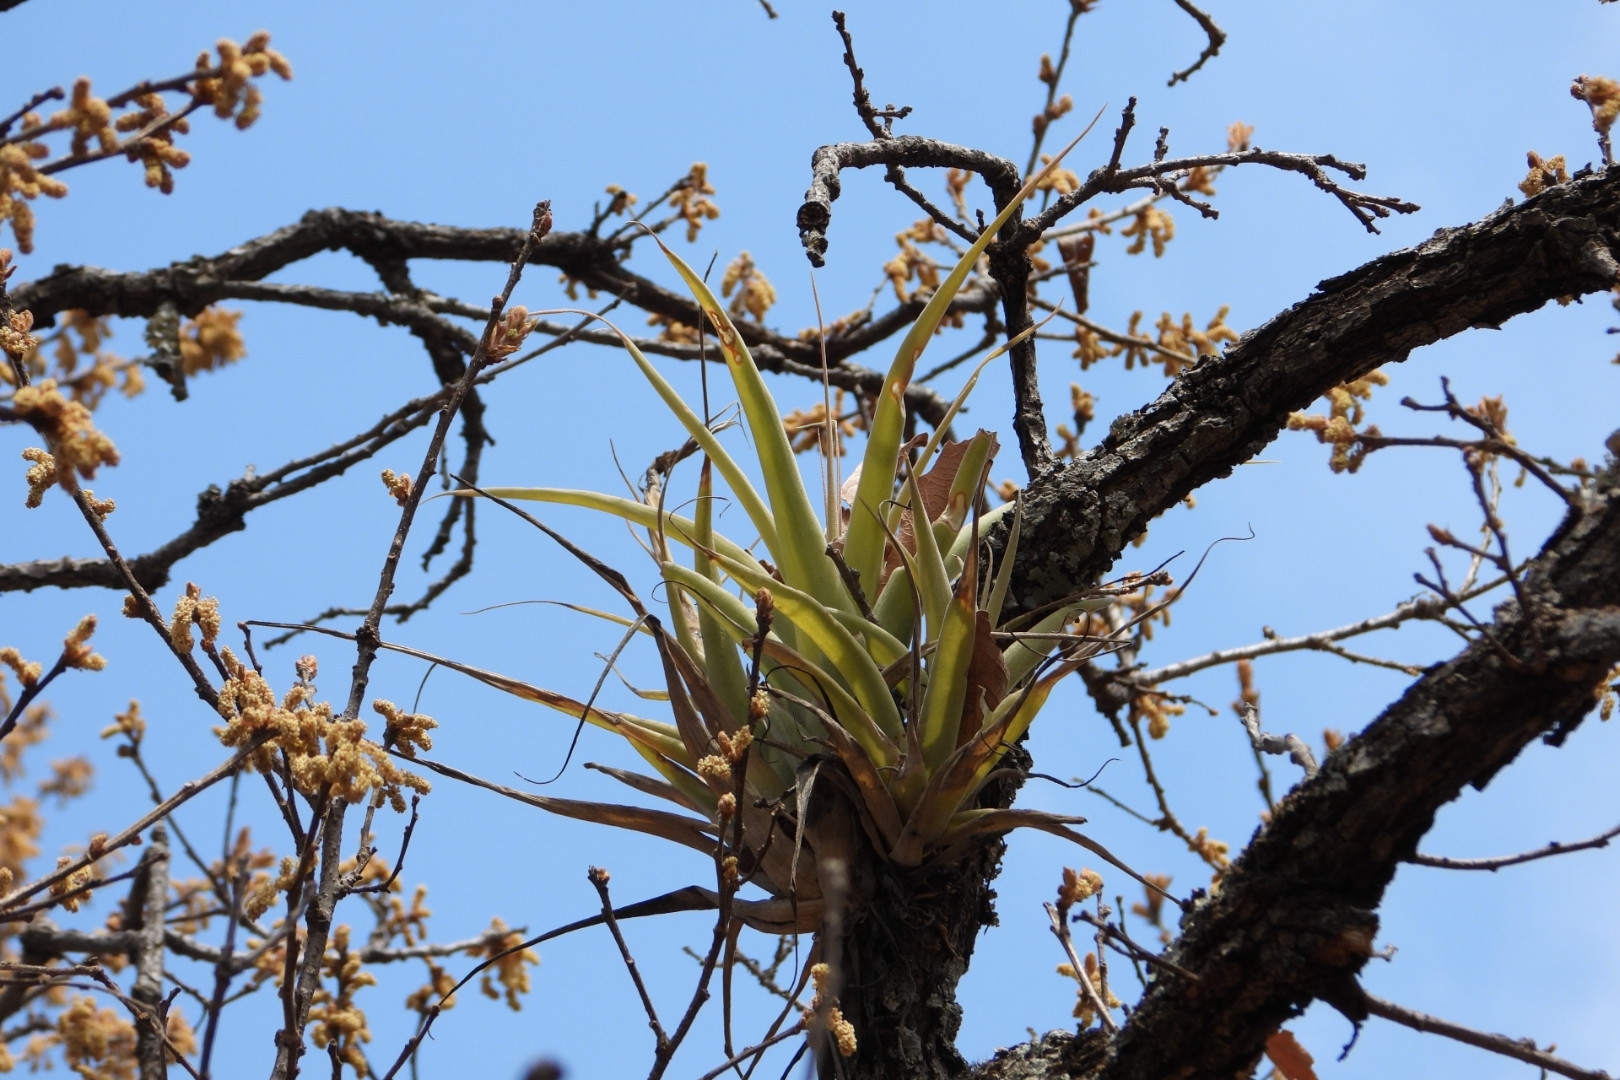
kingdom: Plantae
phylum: Tracheophyta
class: Liliopsida
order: Poales
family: Bromeliaceae
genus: Tillandsia
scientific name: Tillandsia achyrostachys
